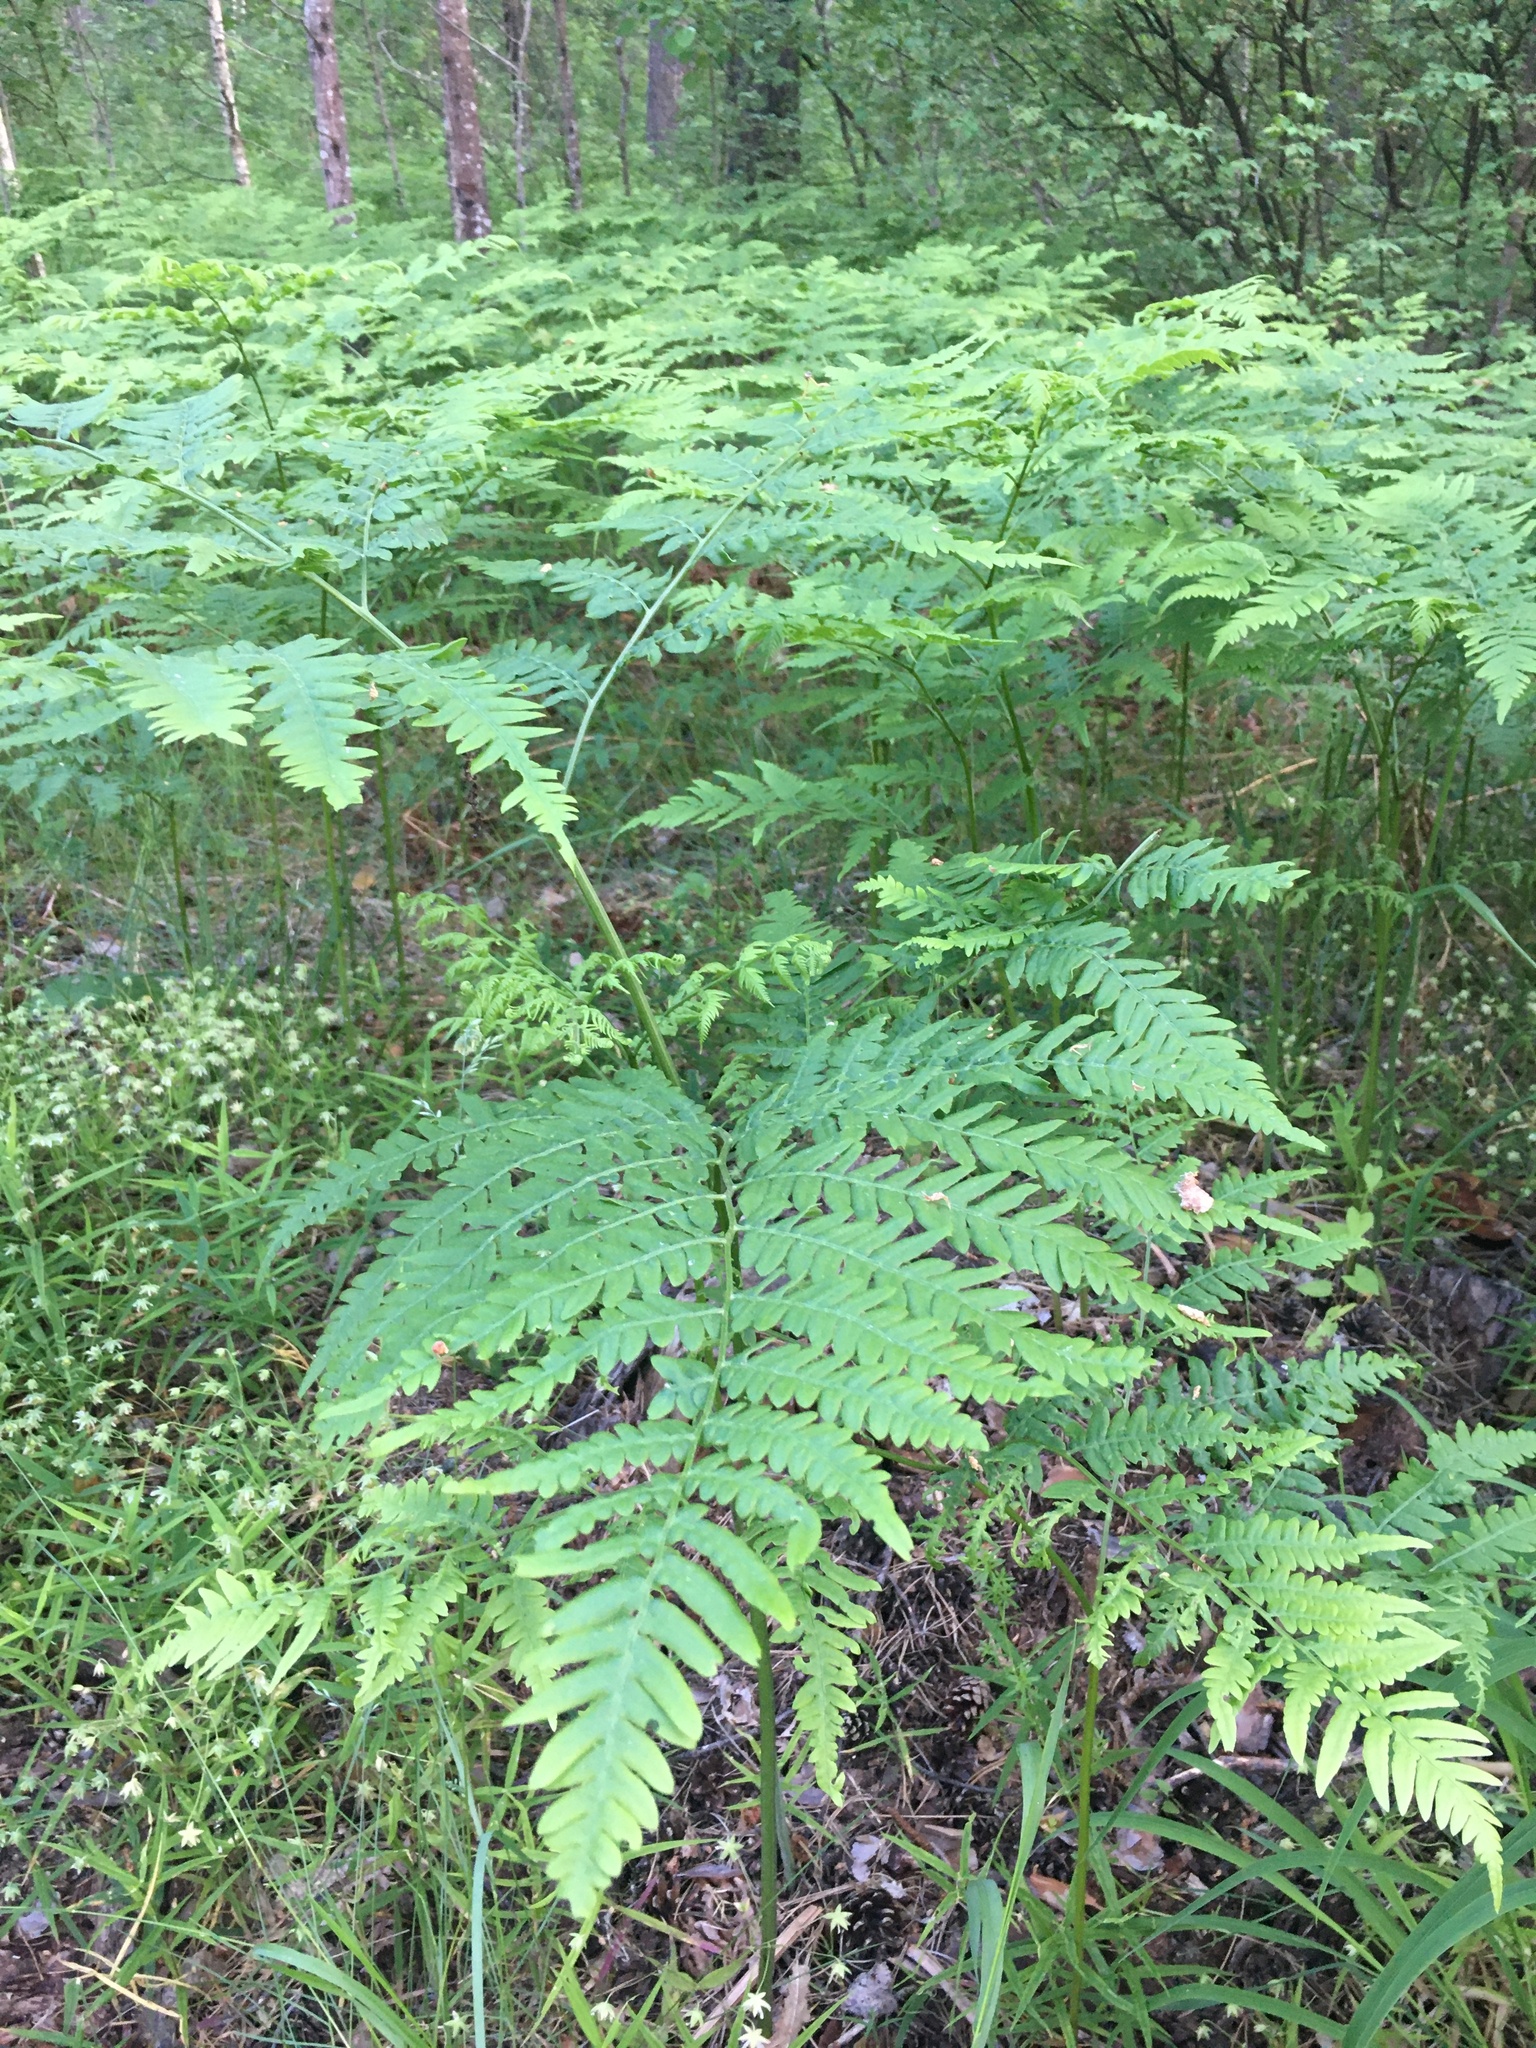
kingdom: Plantae
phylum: Tracheophyta
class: Polypodiopsida
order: Polypodiales
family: Dennstaedtiaceae
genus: Pteridium
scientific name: Pteridium aquilinum
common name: Bracken
